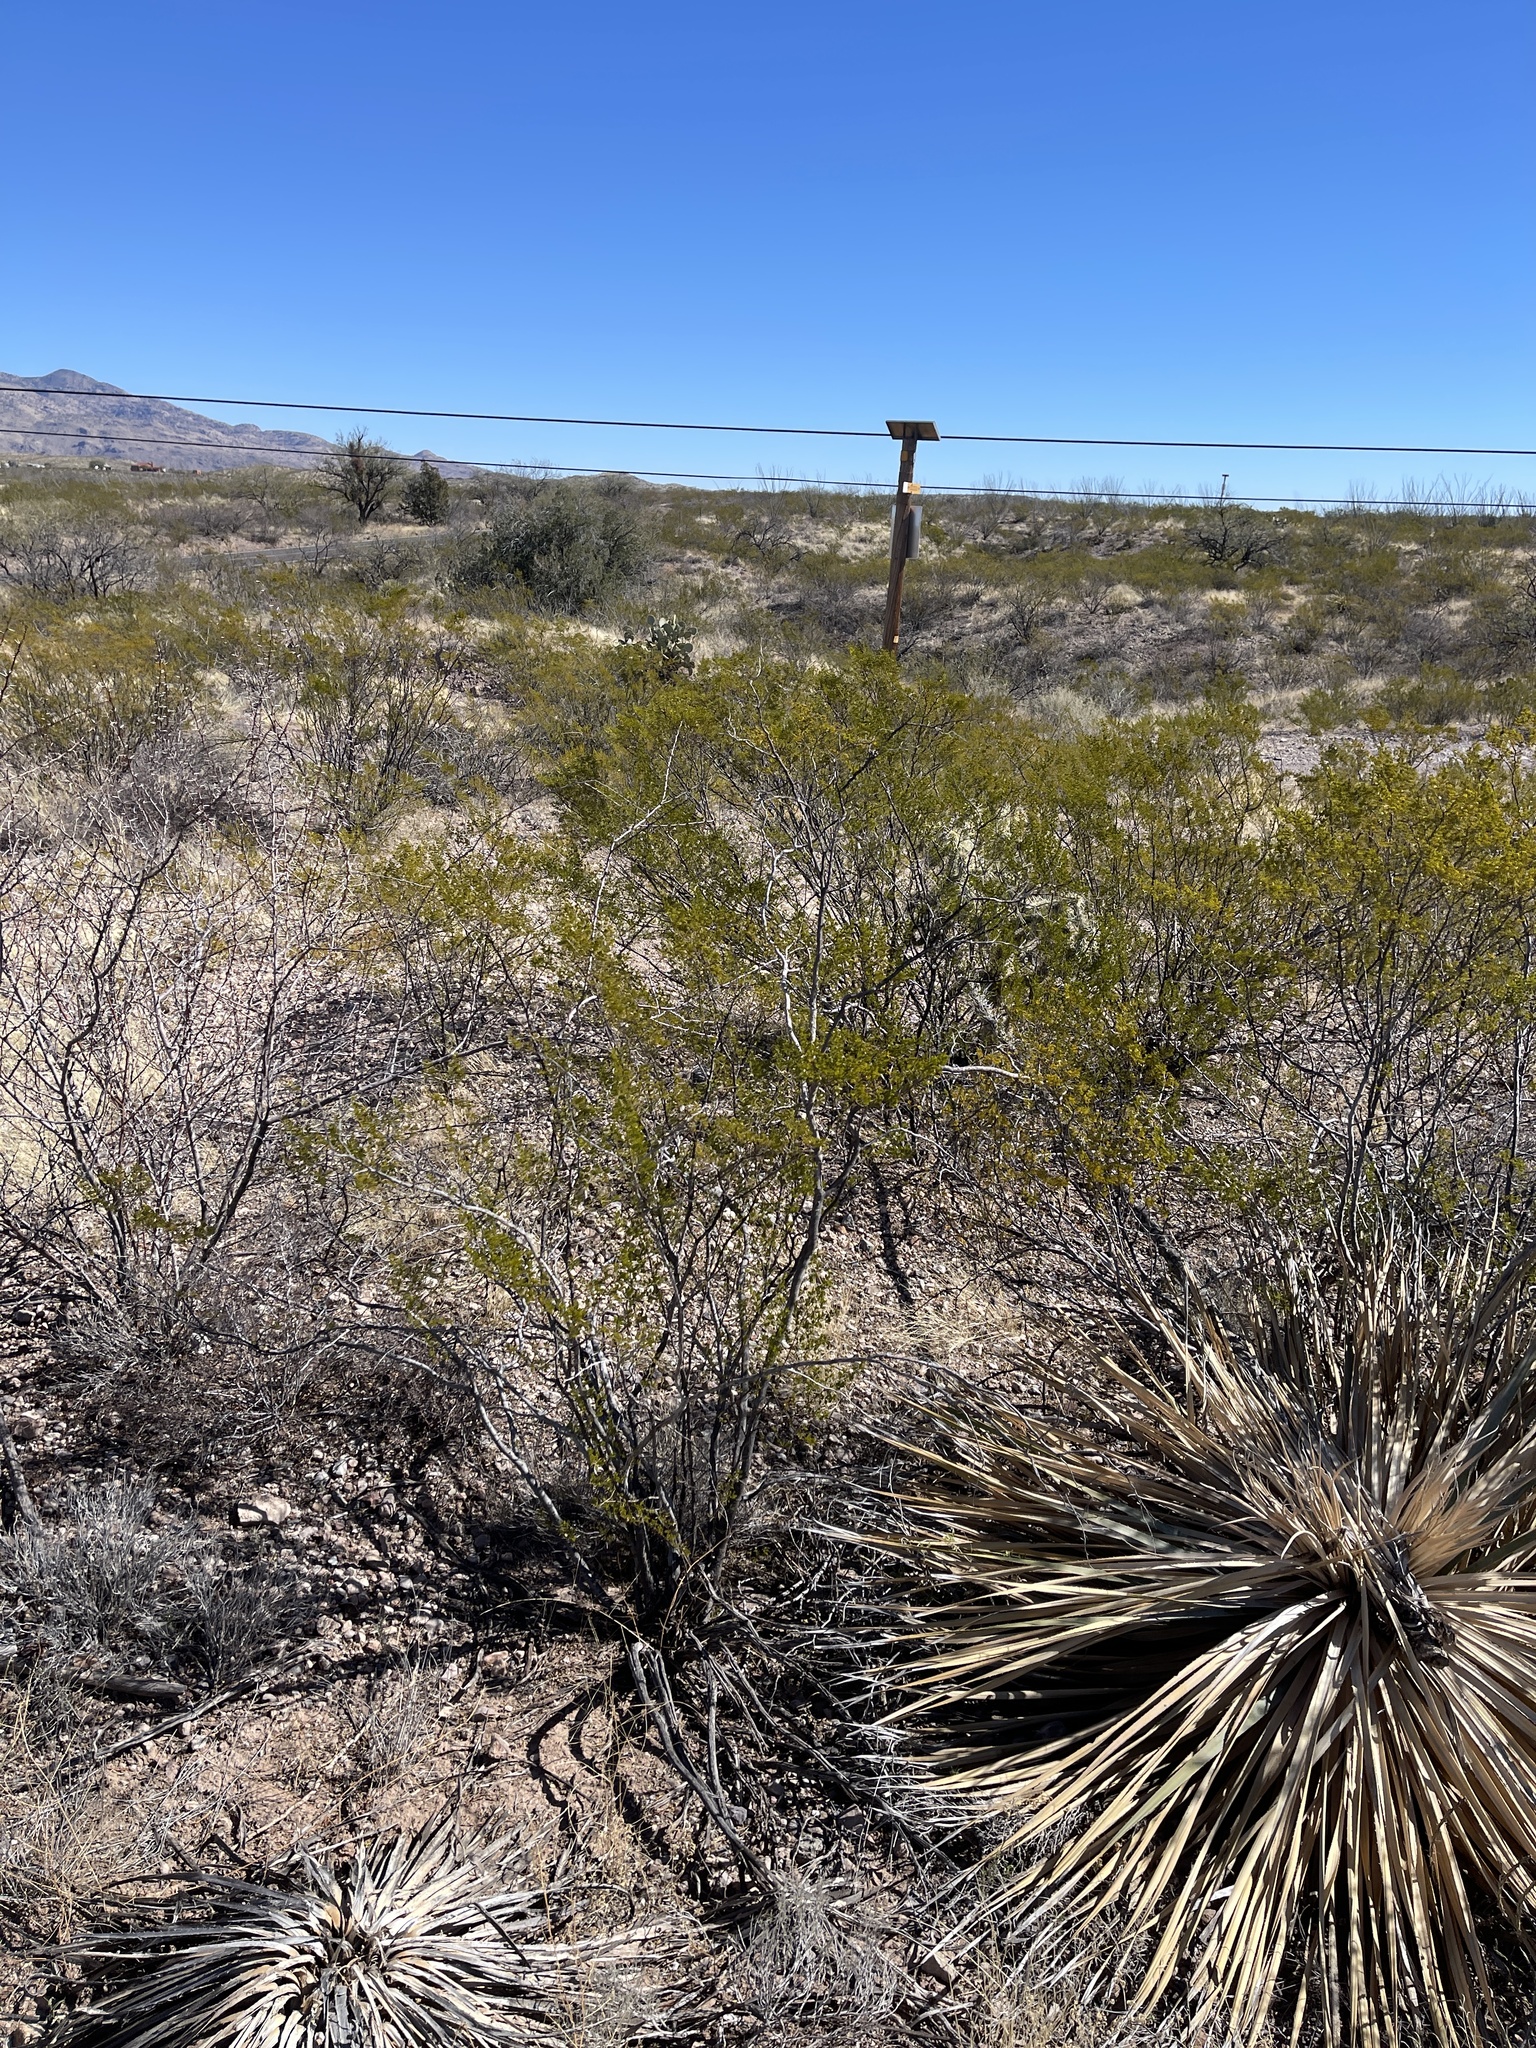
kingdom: Plantae
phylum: Tracheophyta
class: Magnoliopsida
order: Zygophyllales
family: Zygophyllaceae
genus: Larrea
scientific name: Larrea tridentata
